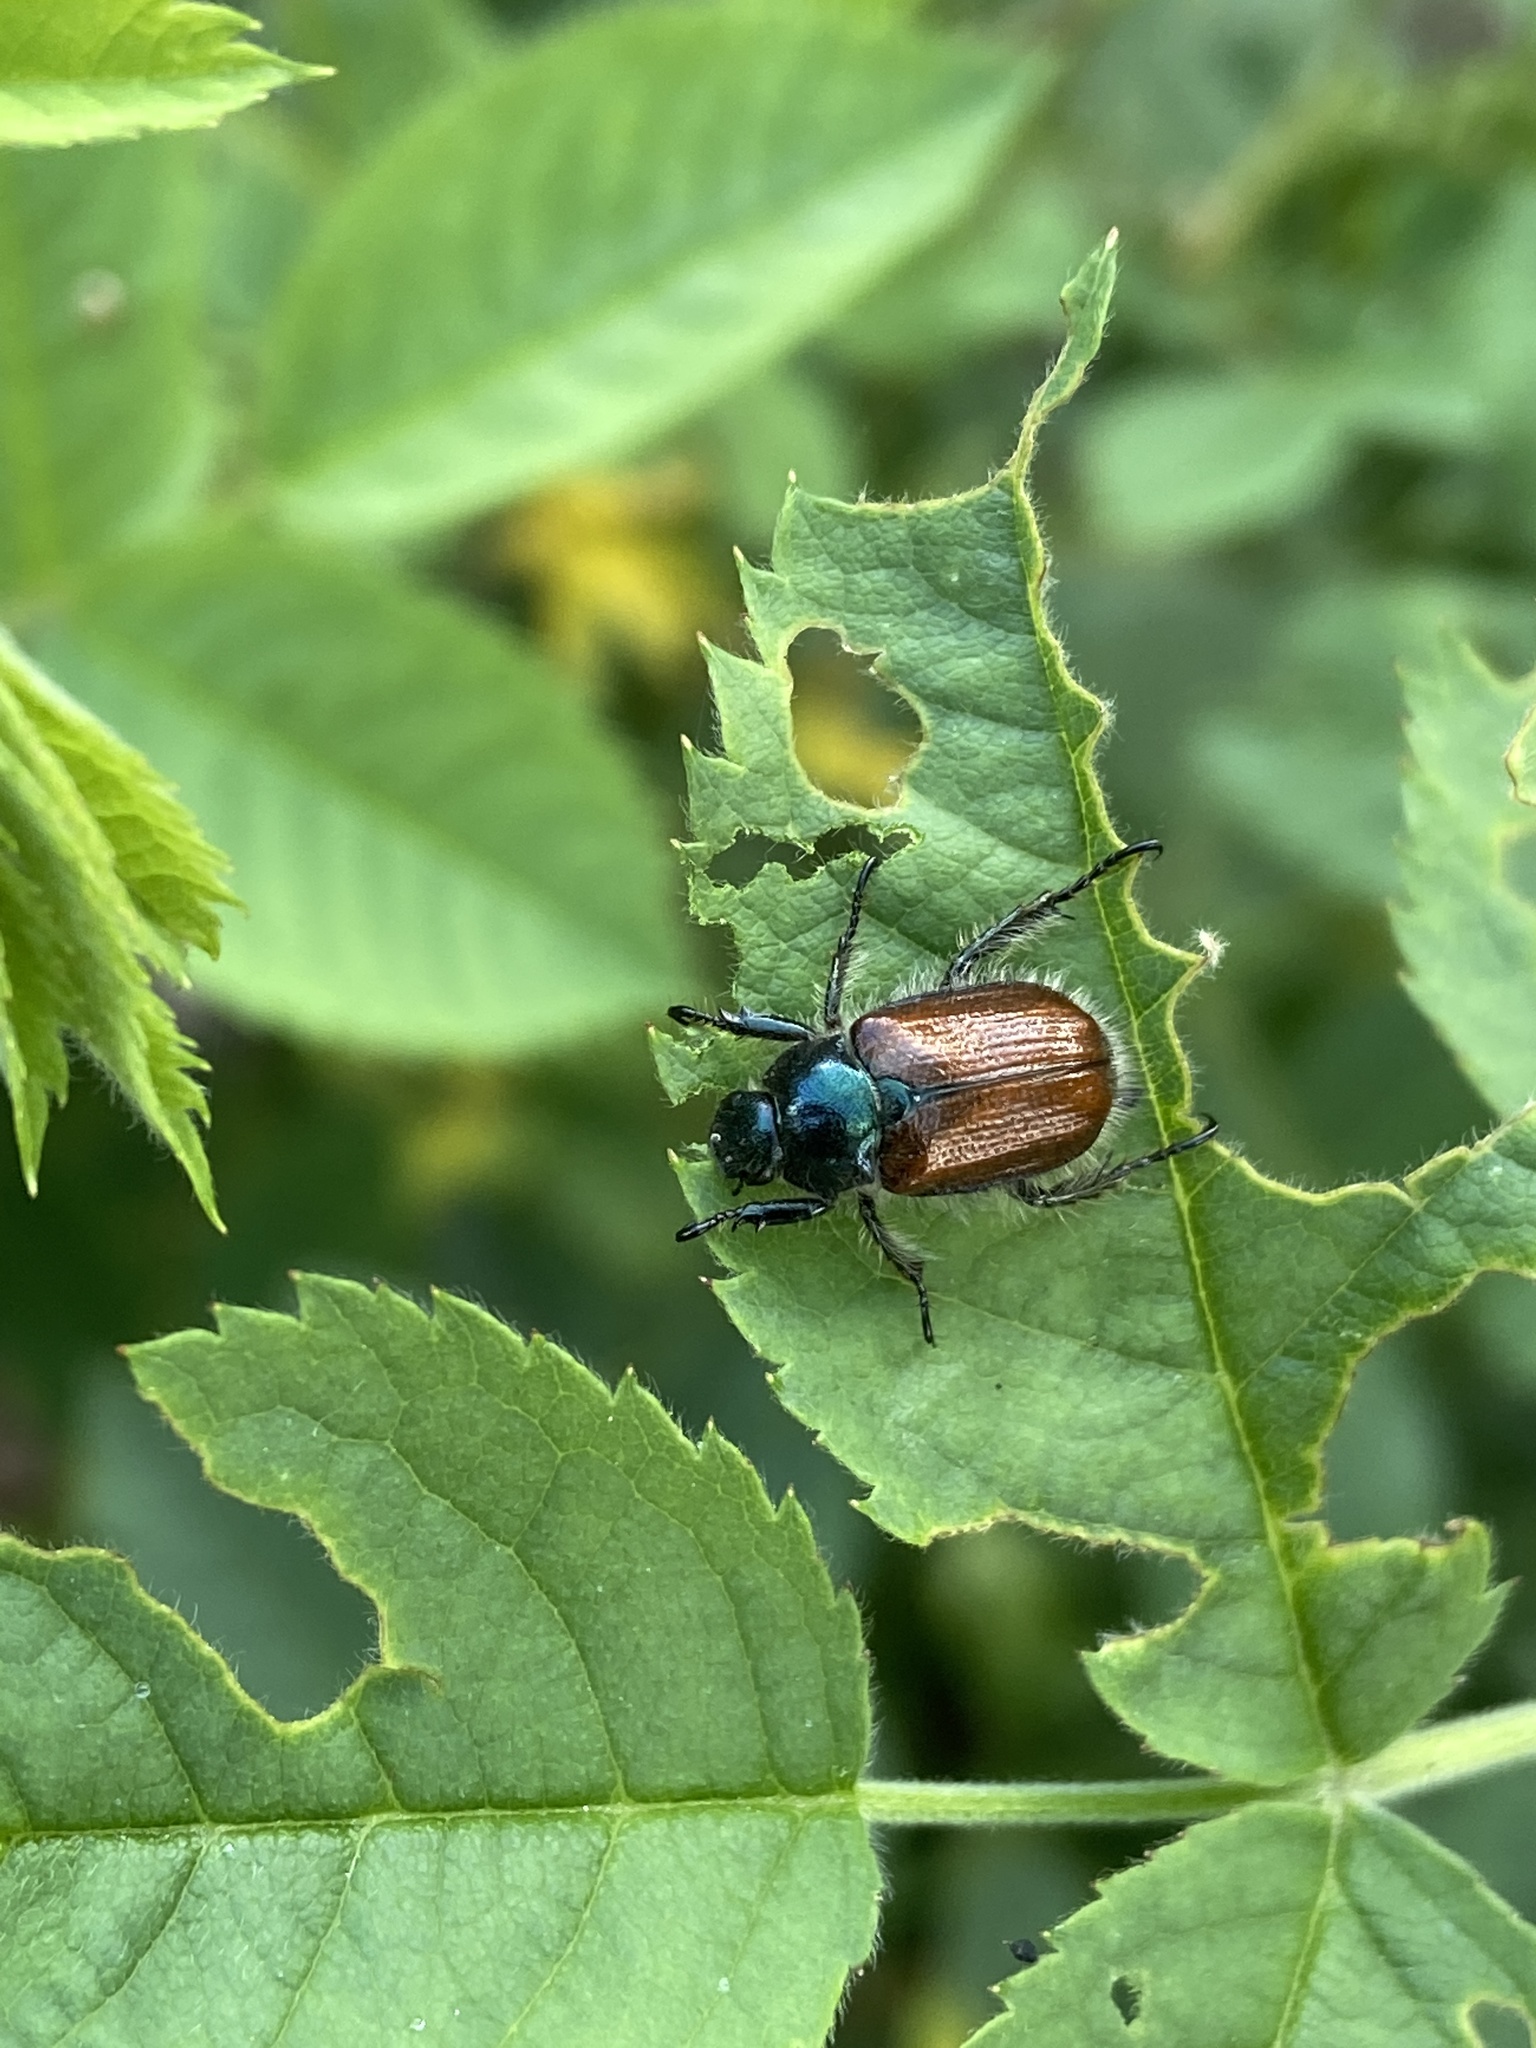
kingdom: Animalia
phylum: Arthropoda
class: Insecta
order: Coleoptera
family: Scarabaeidae
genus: Phyllopertha
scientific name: Phyllopertha horticola
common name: Garden chafer
